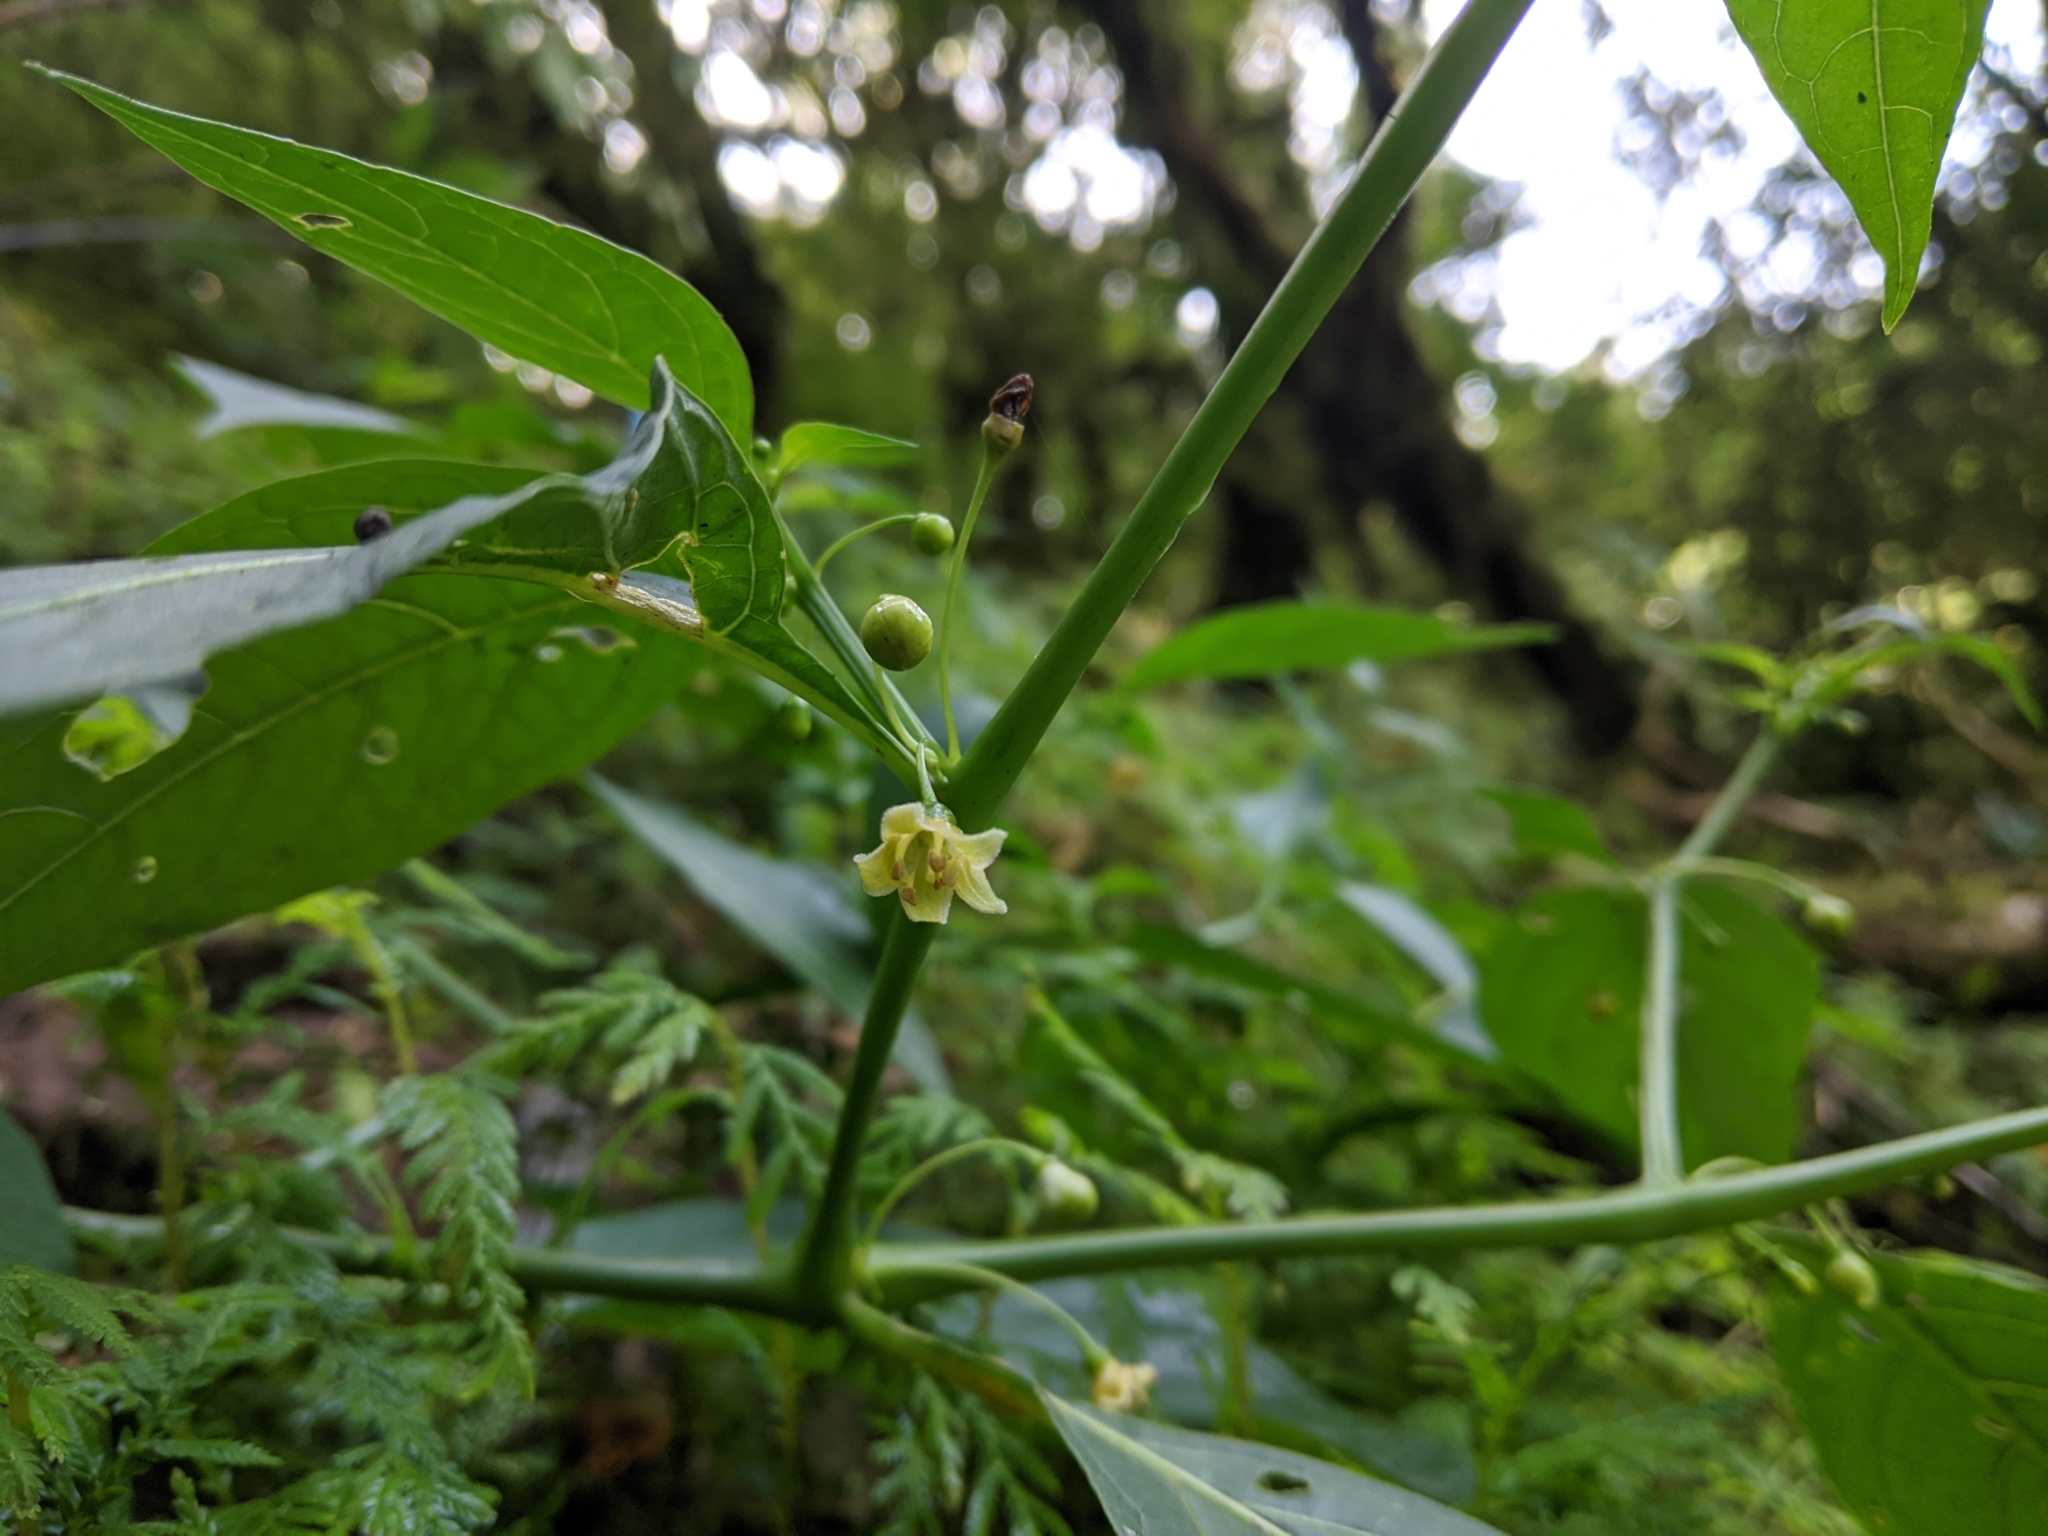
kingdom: Plantae
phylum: Tracheophyta
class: Magnoliopsida
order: Solanales
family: Solanaceae
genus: Tubocapsicum
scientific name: Tubocapsicum anomalum
